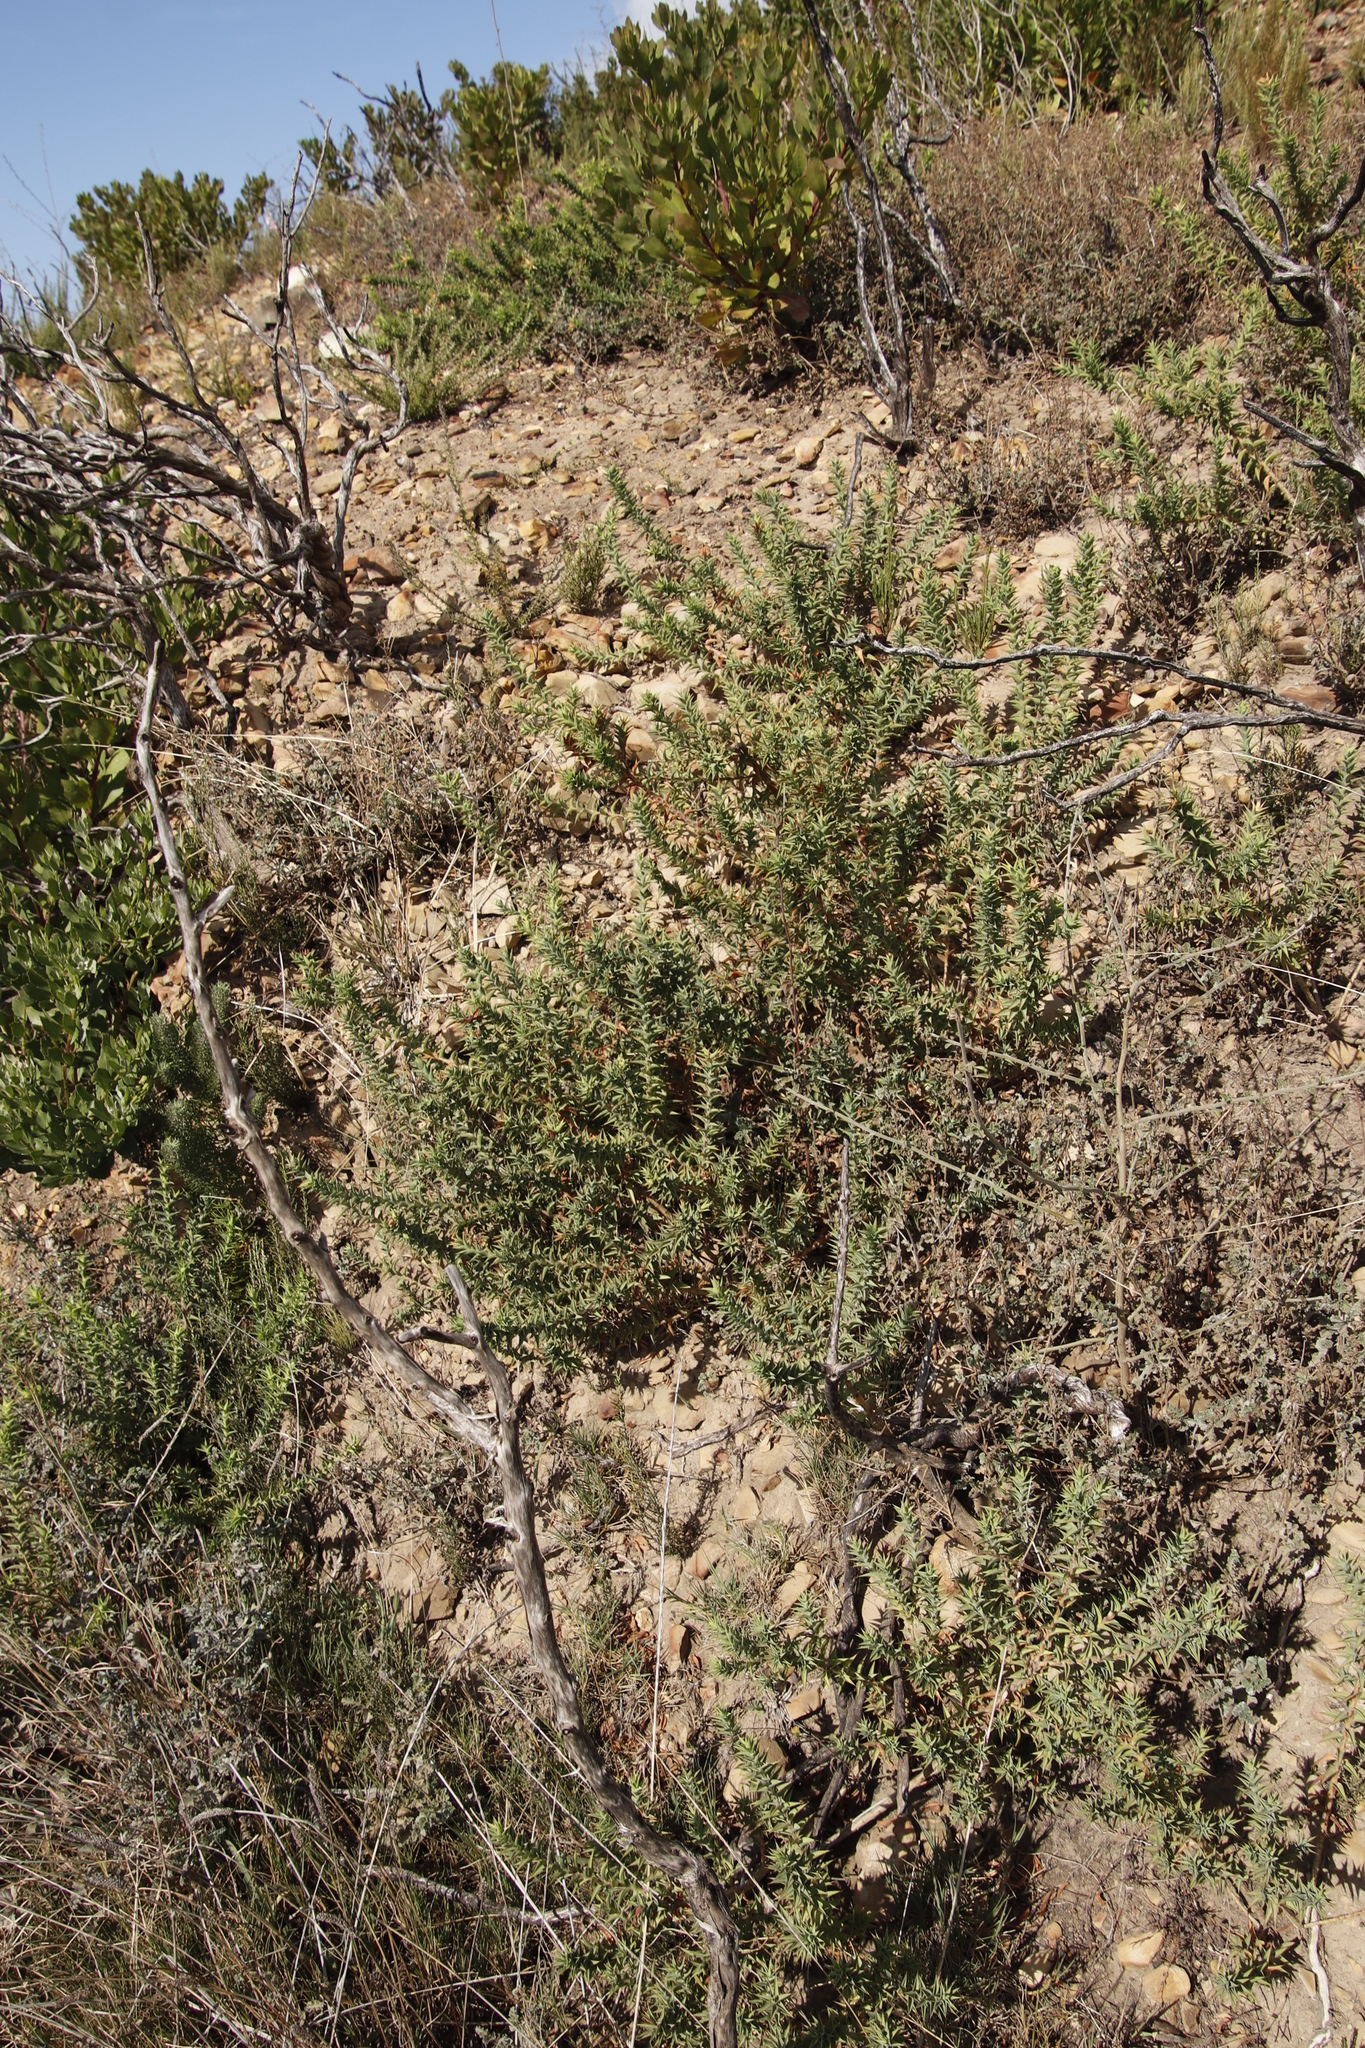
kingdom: Plantae
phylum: Tracheophyta
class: Magnoliopsida
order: Fabales
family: Fabaceae
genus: Aspalathus
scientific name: Aspalathus cordata
